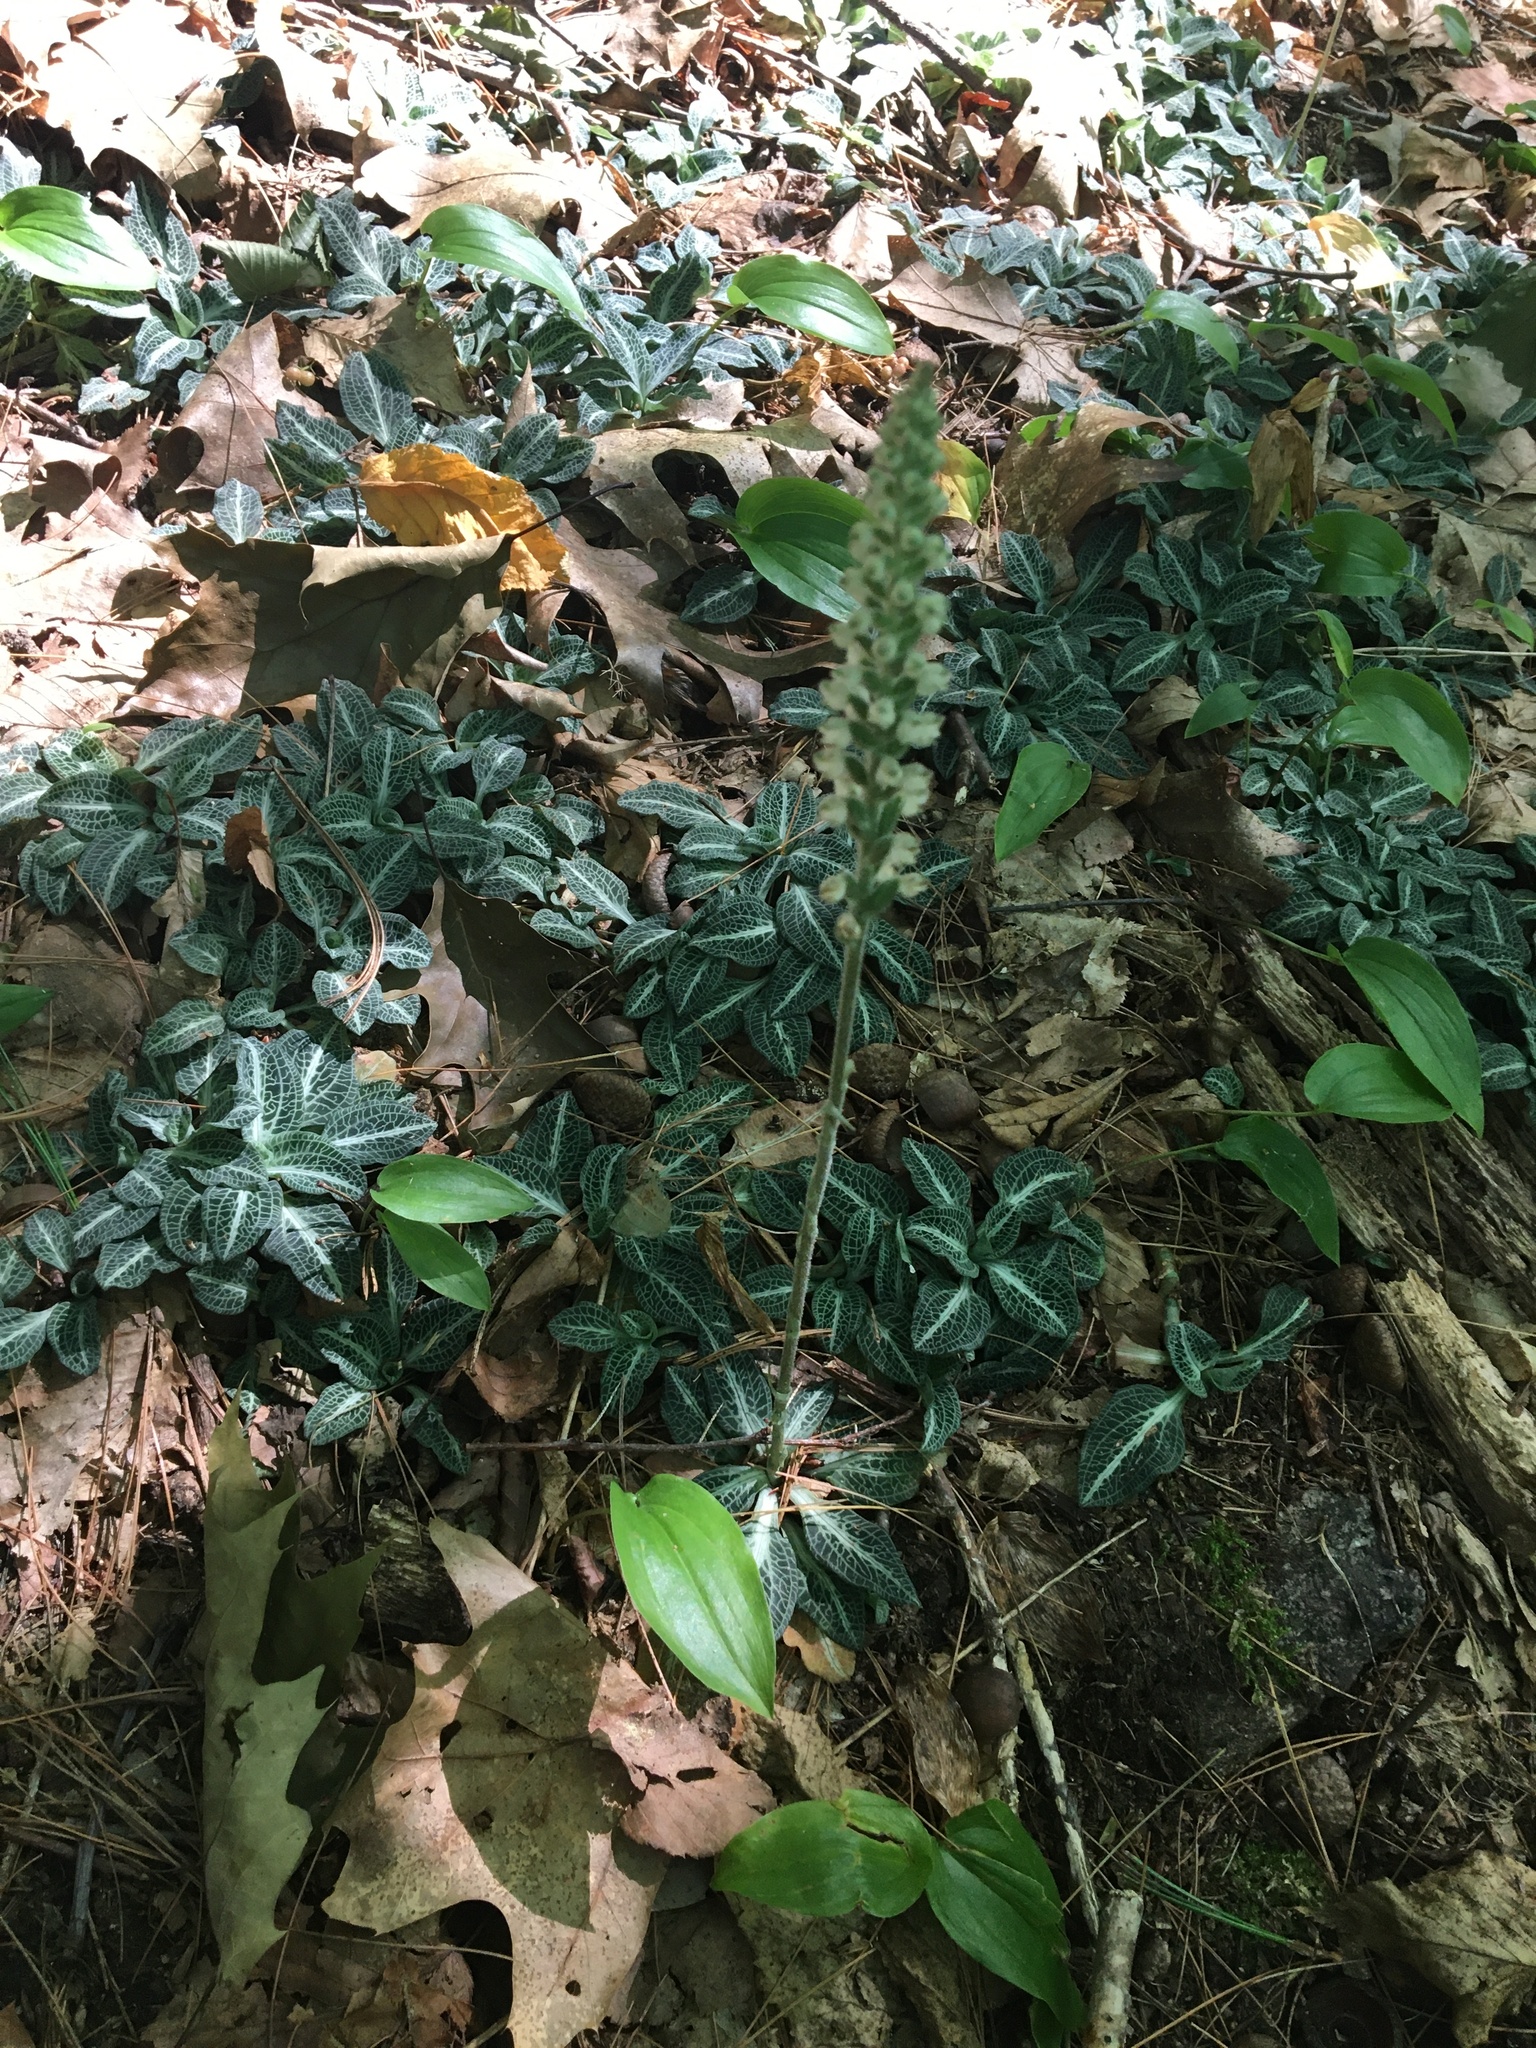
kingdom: Plantae
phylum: Tracheophyta
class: Liliopsida
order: Asparagales
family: Orchidaceae
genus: Goodyera
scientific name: Goodyera pubescens
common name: Downy rattlesnake-plantain
